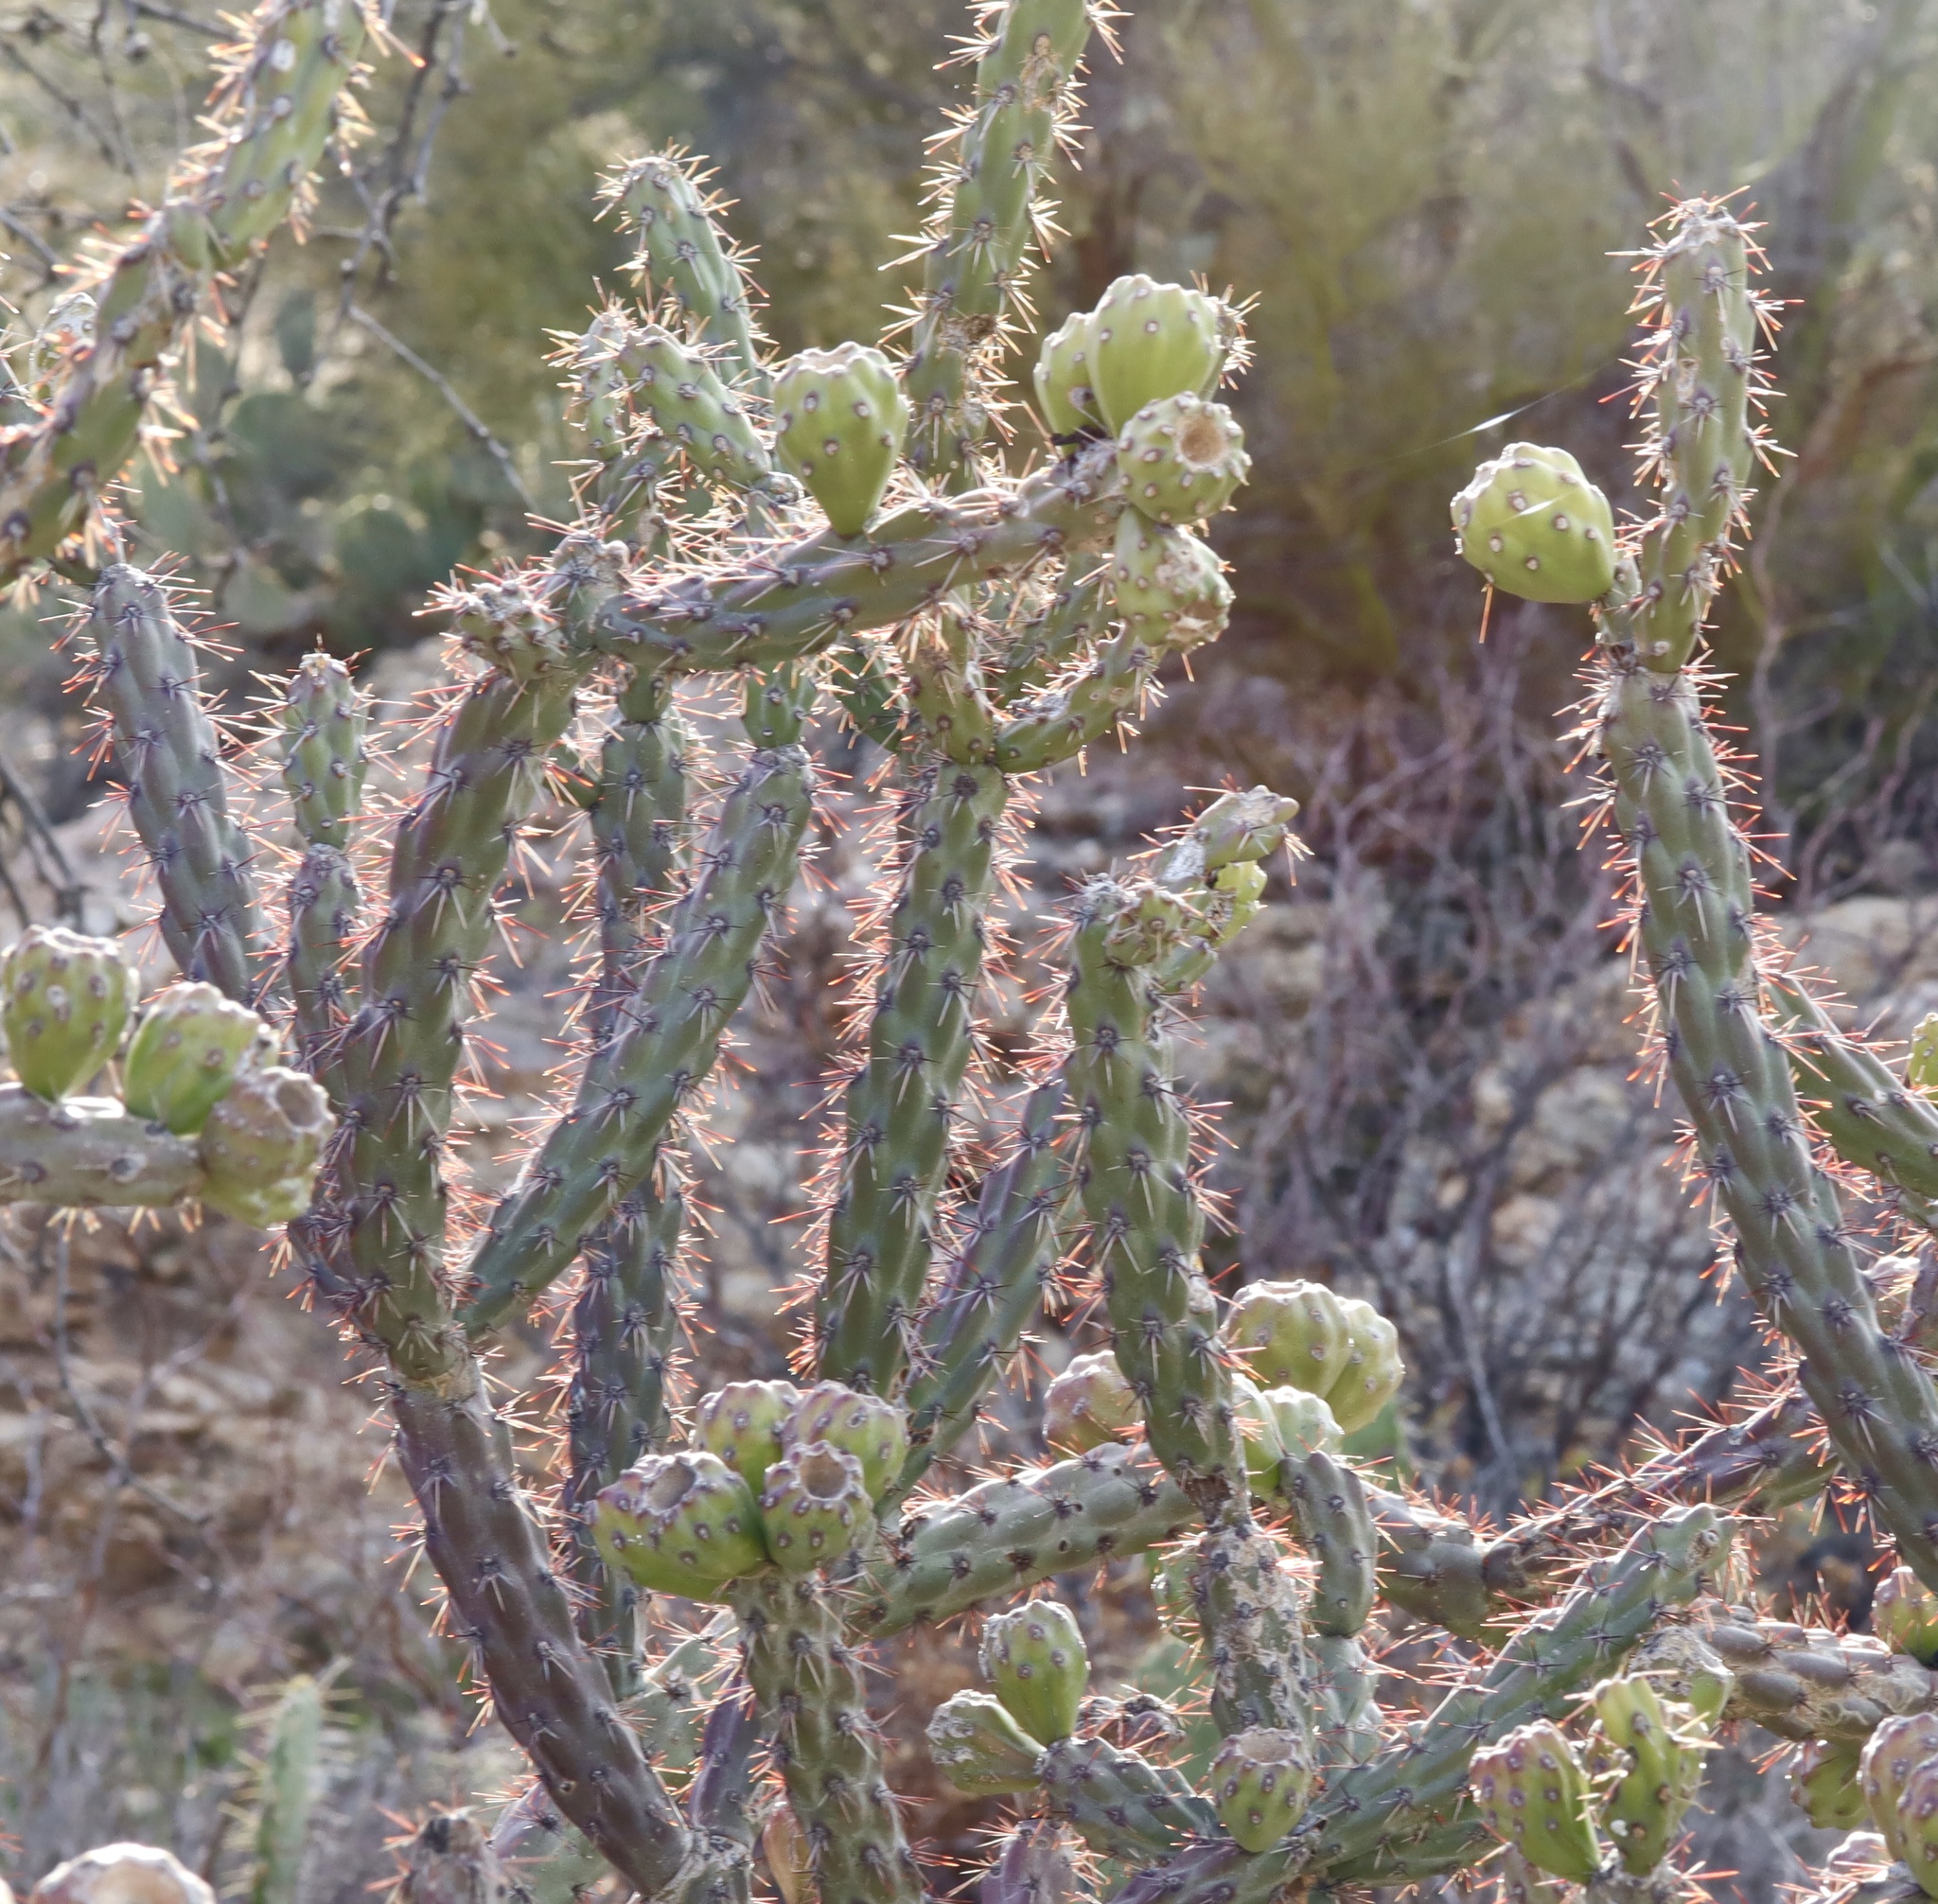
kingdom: Plantae
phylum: Tracheophyta
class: Magnoliopsida
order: Caryophyllales
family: Cactaceae
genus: Cylindropuntia
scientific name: Cylindropuntia thurberi
